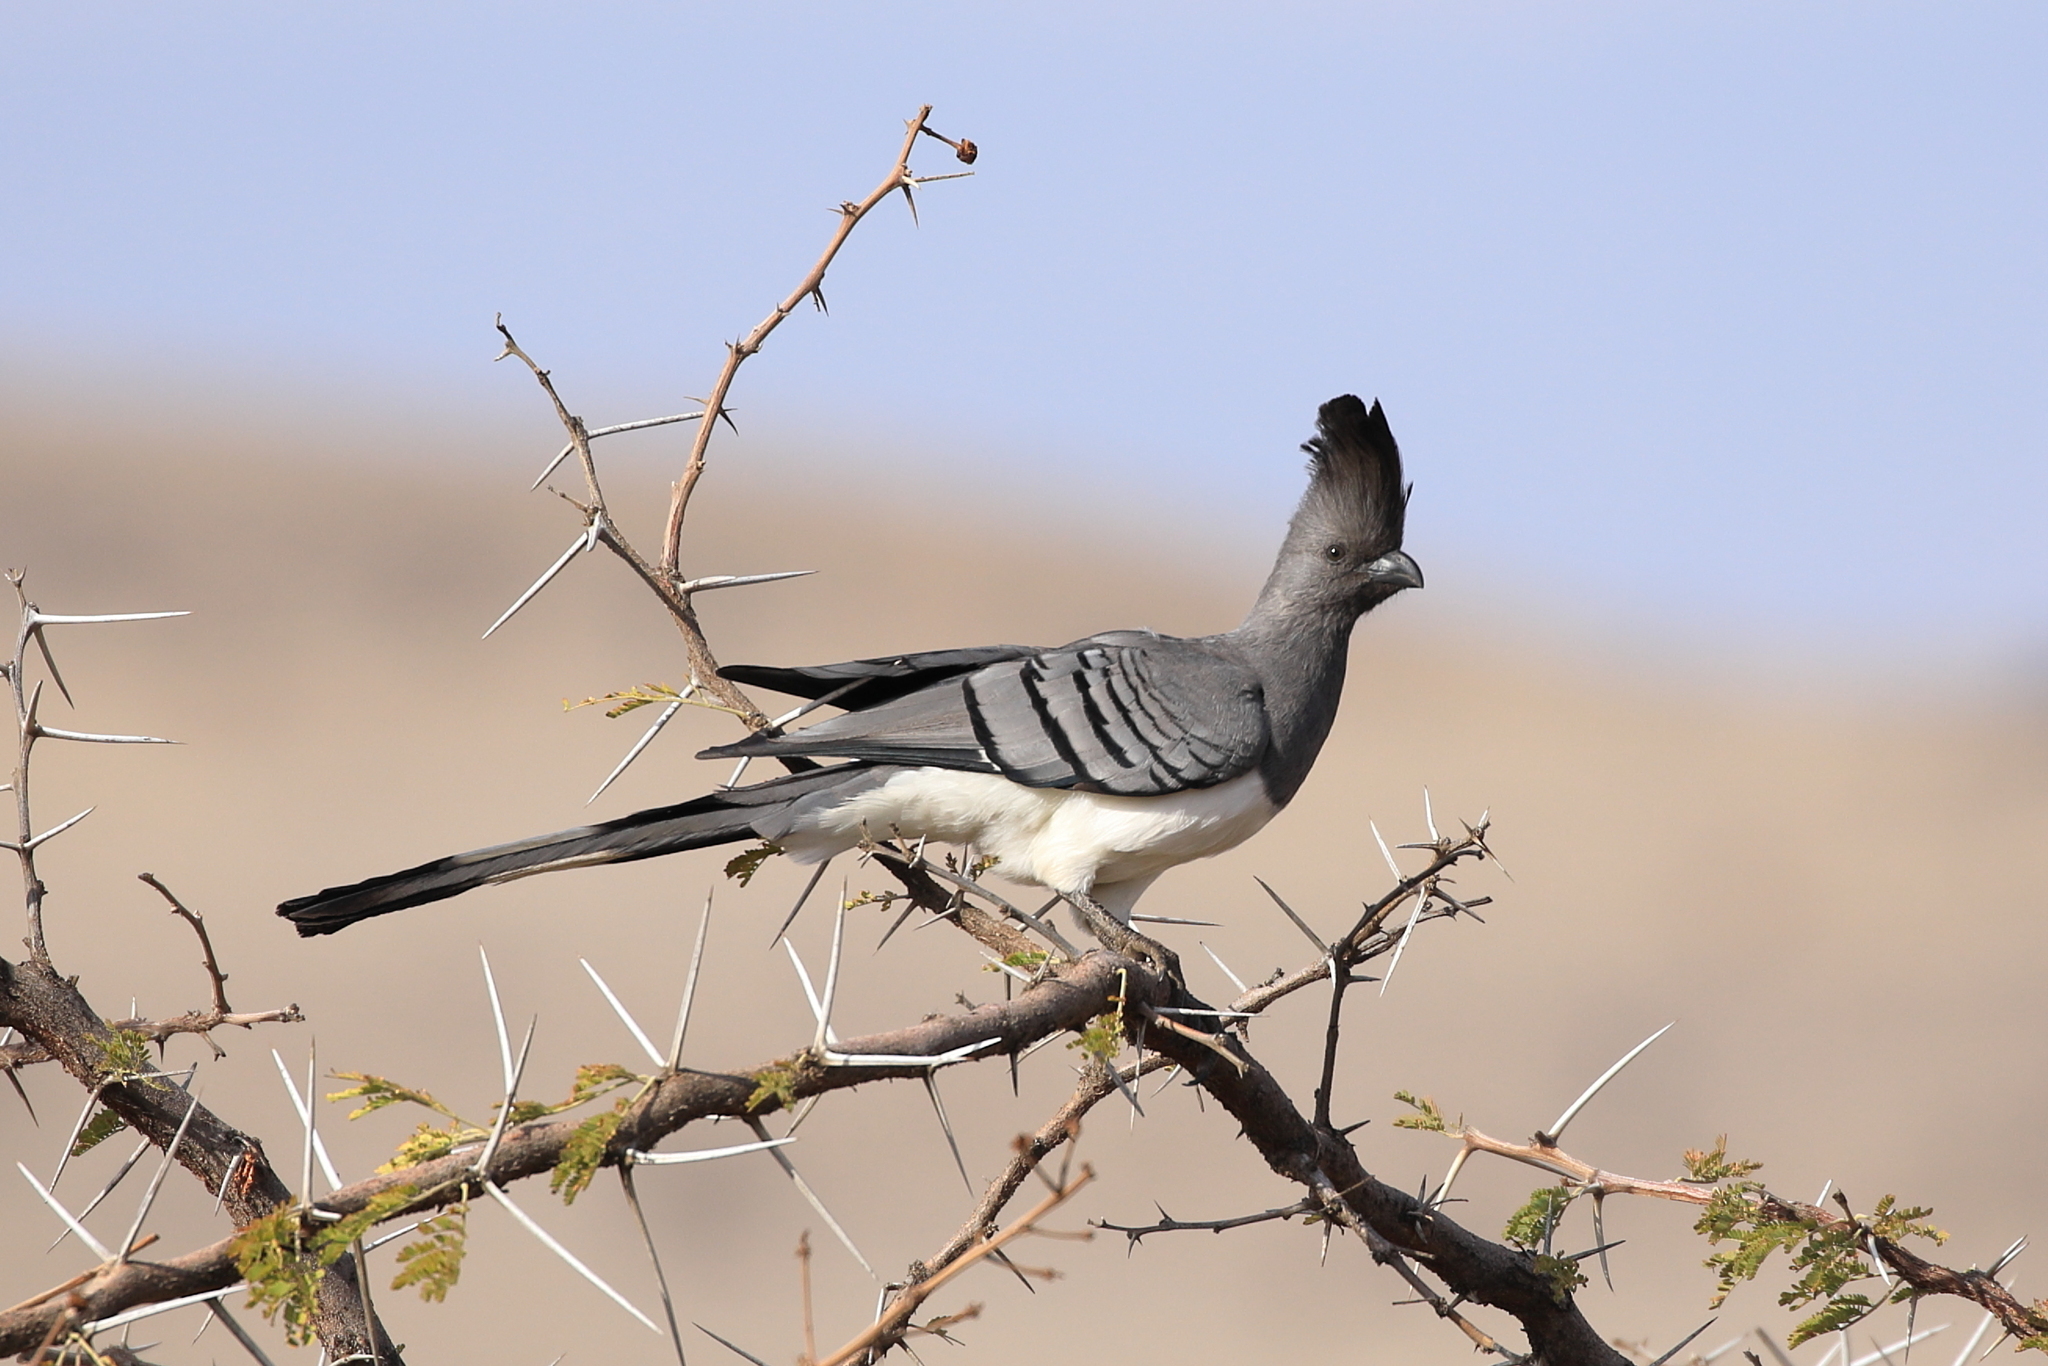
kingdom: Animalia
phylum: Chordata
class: Aves
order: Musophagiformes
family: Musophagidae
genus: Corythaixoides
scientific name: Corythaixoides leucogaster
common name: White-bellied go-away-bird
